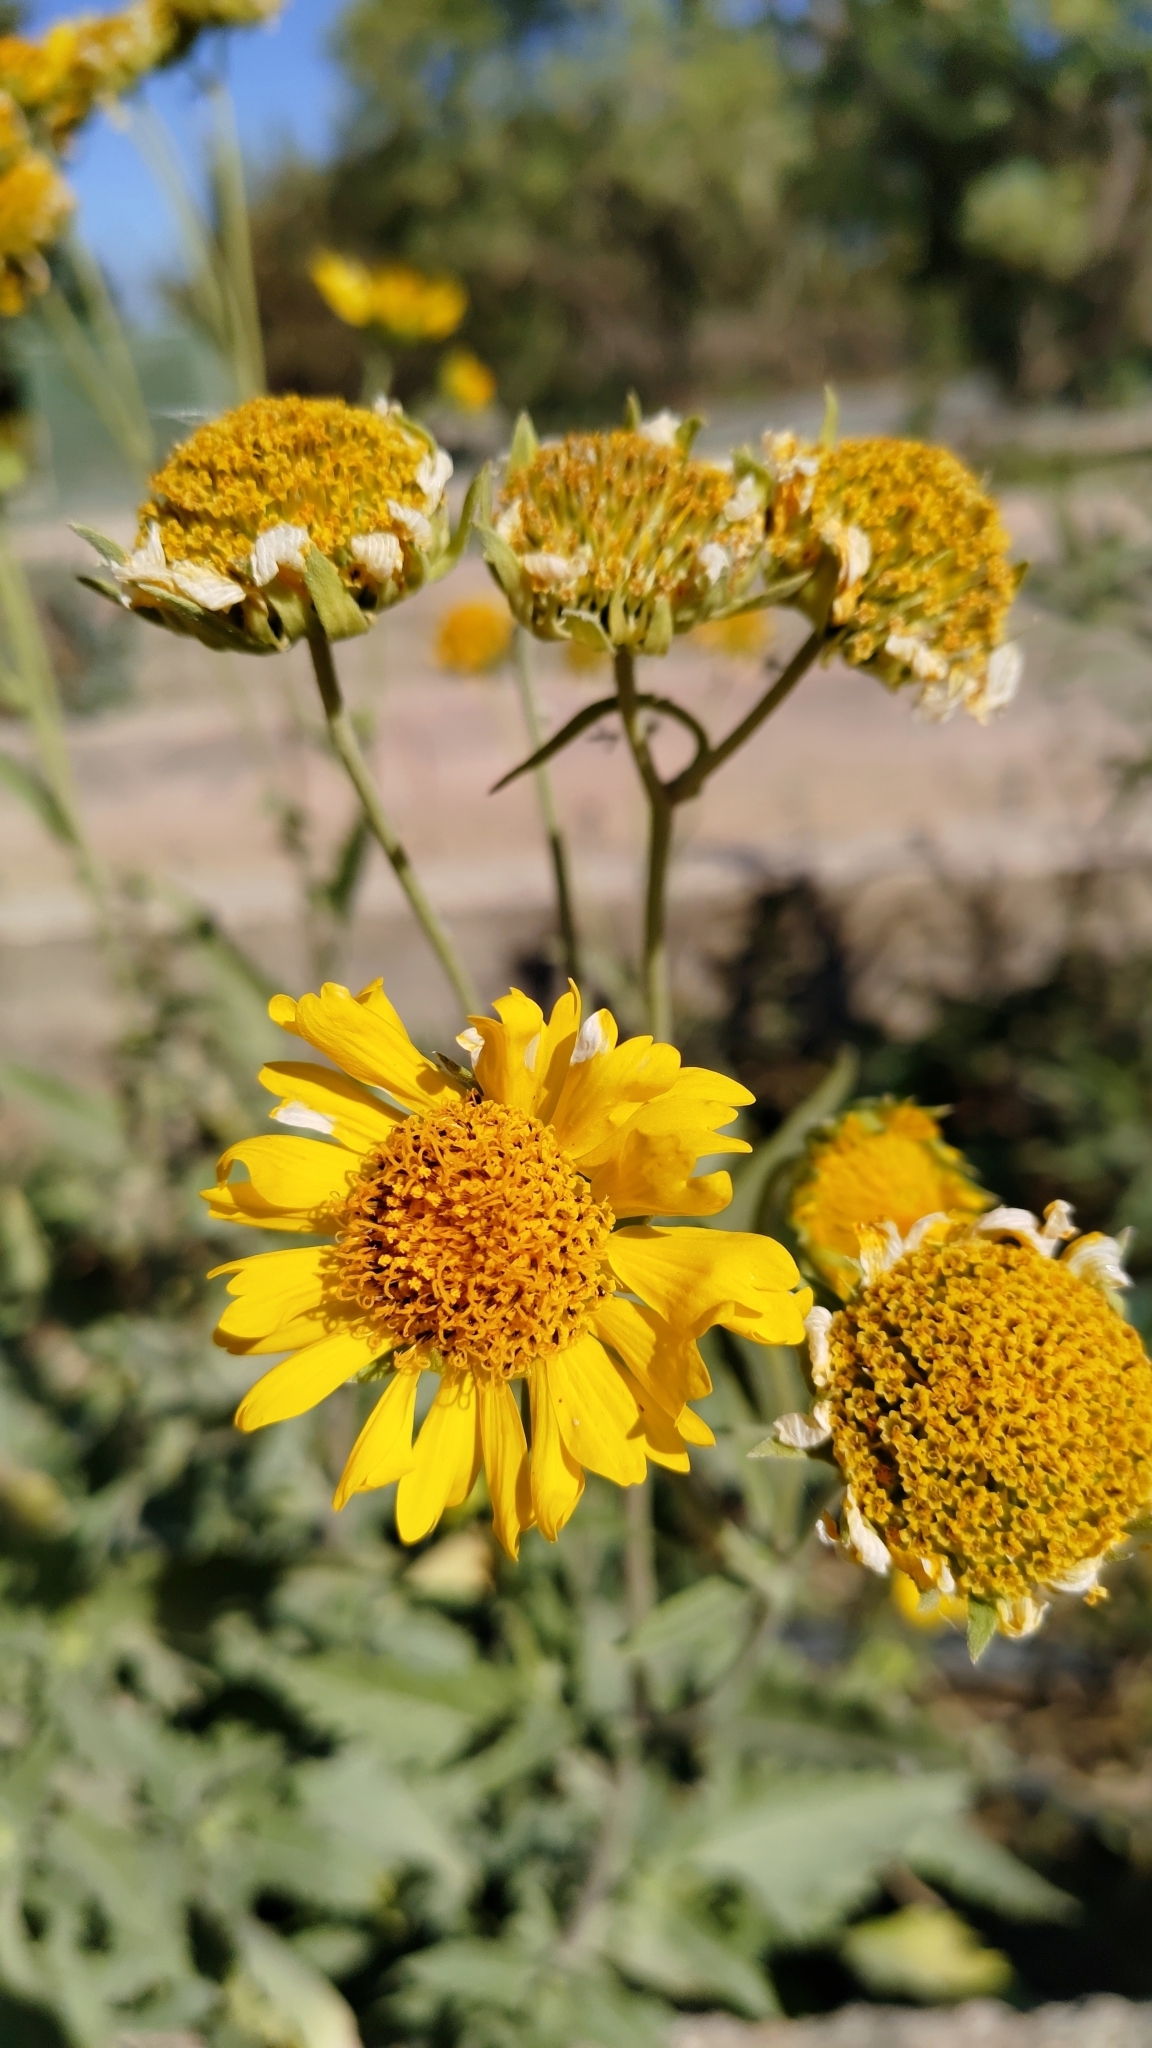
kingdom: Plantae
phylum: Tracheophyta
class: Magnoliopsida
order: Asterales
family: Asteraceae
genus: Verbesina
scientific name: Verbesina encelioides
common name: Golden crownbeard
